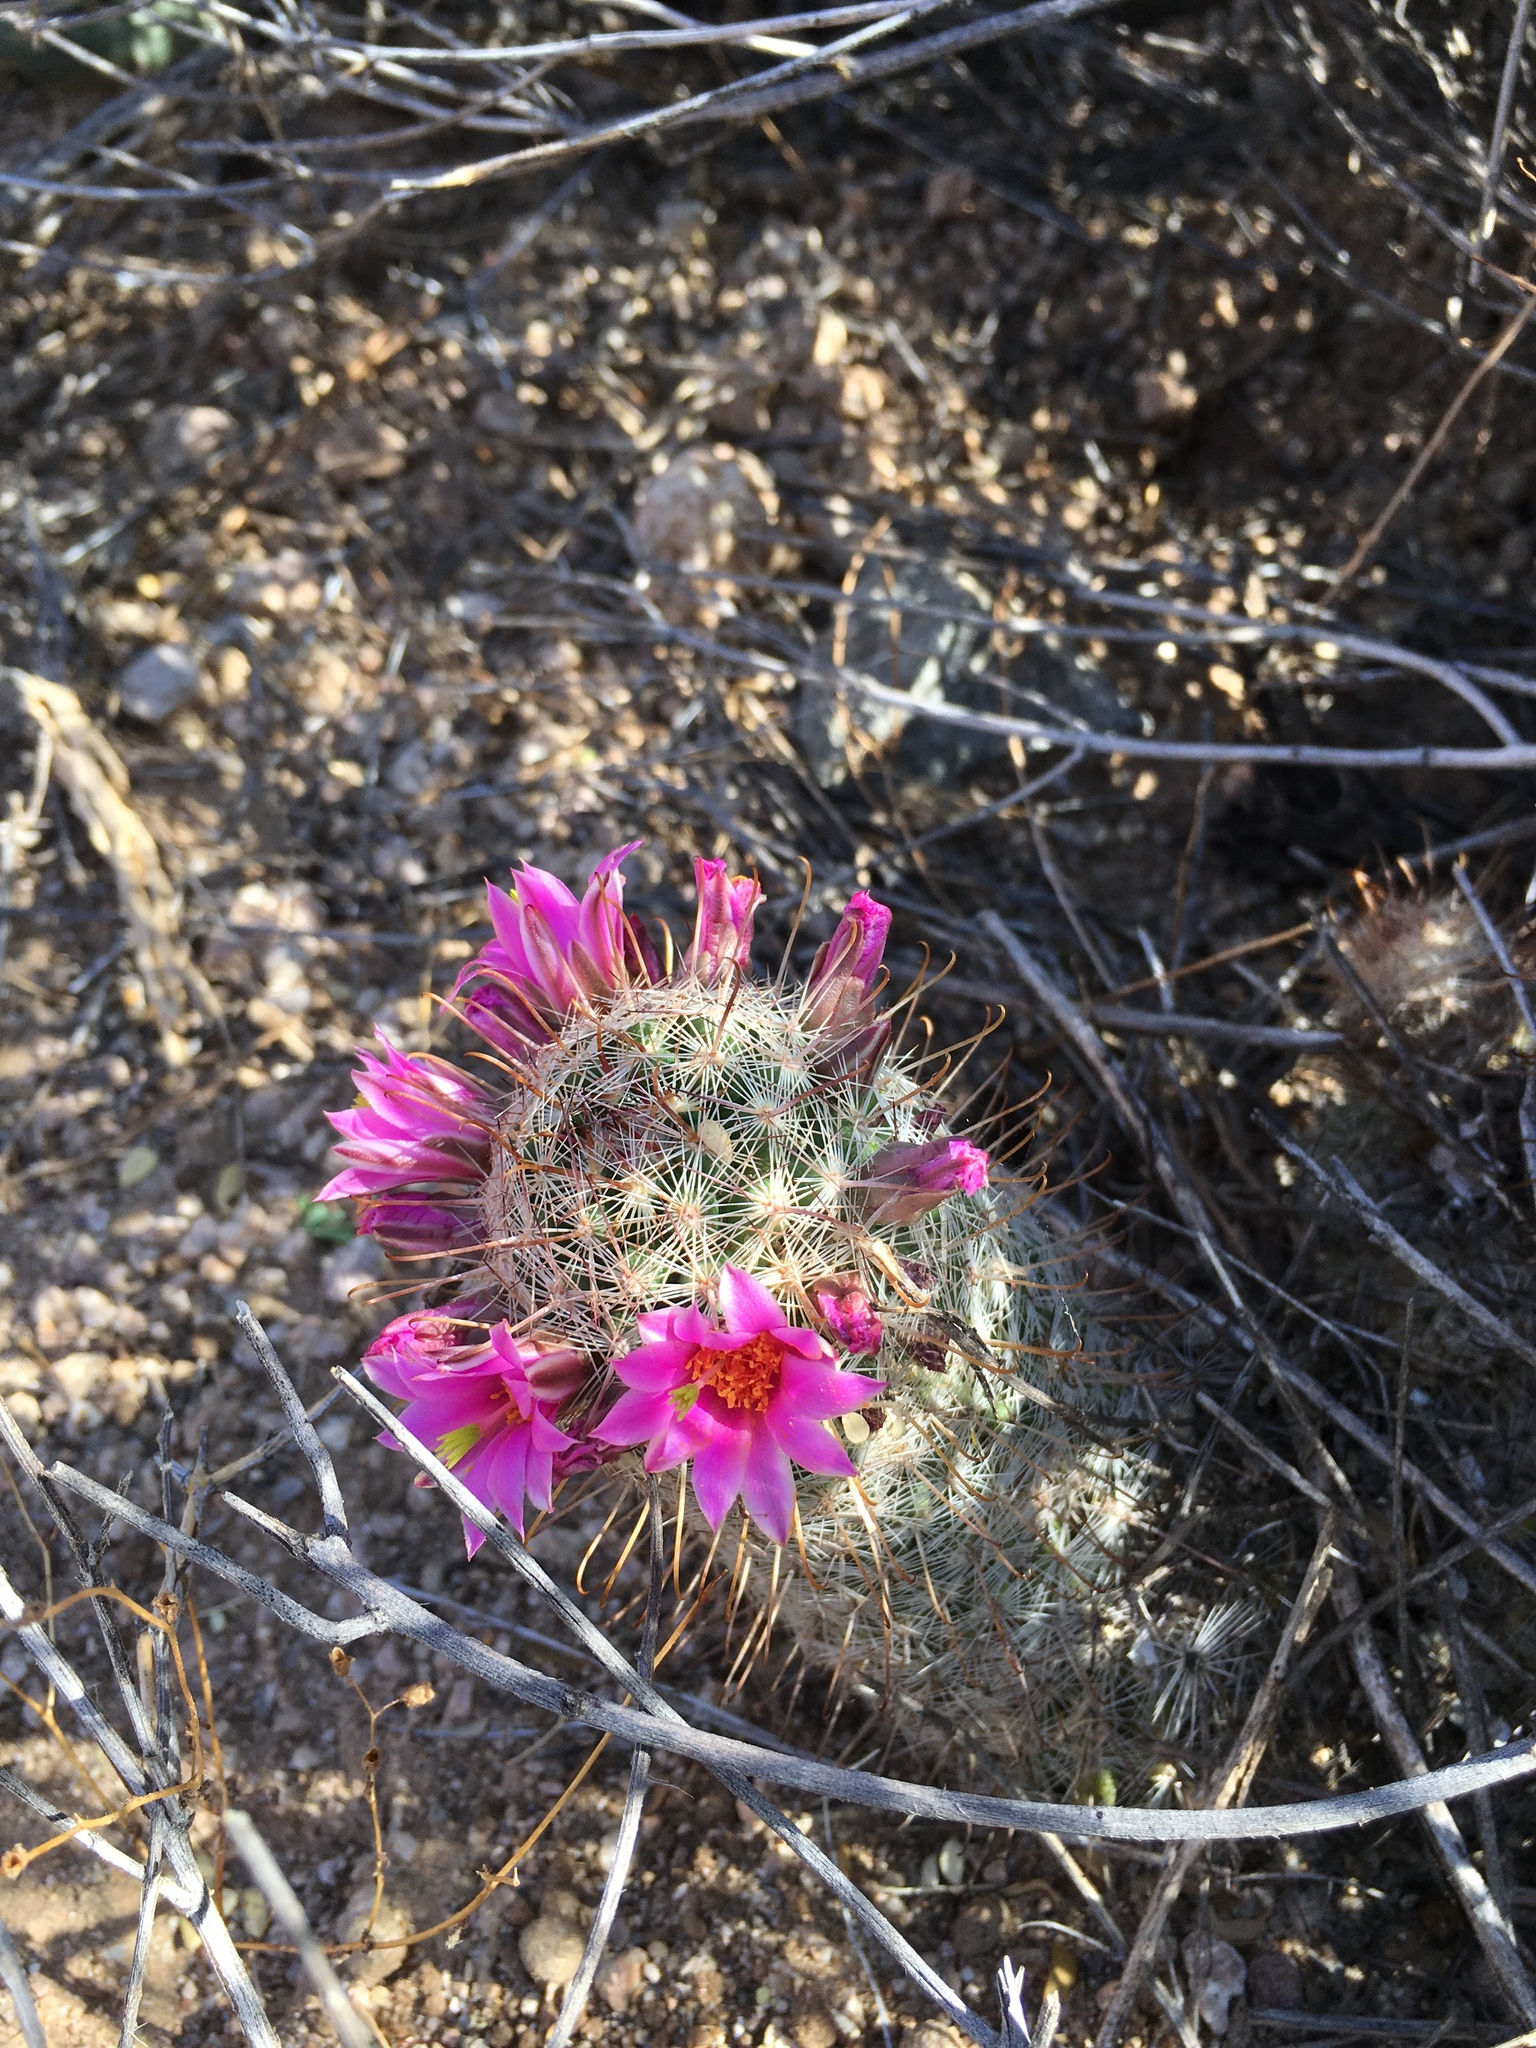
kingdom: Plantae
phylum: Tracheophyta
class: Magnoliopsida
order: Caryophyllales
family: Cactaceae
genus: Cochemiea
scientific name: Cochemiea grahamii
